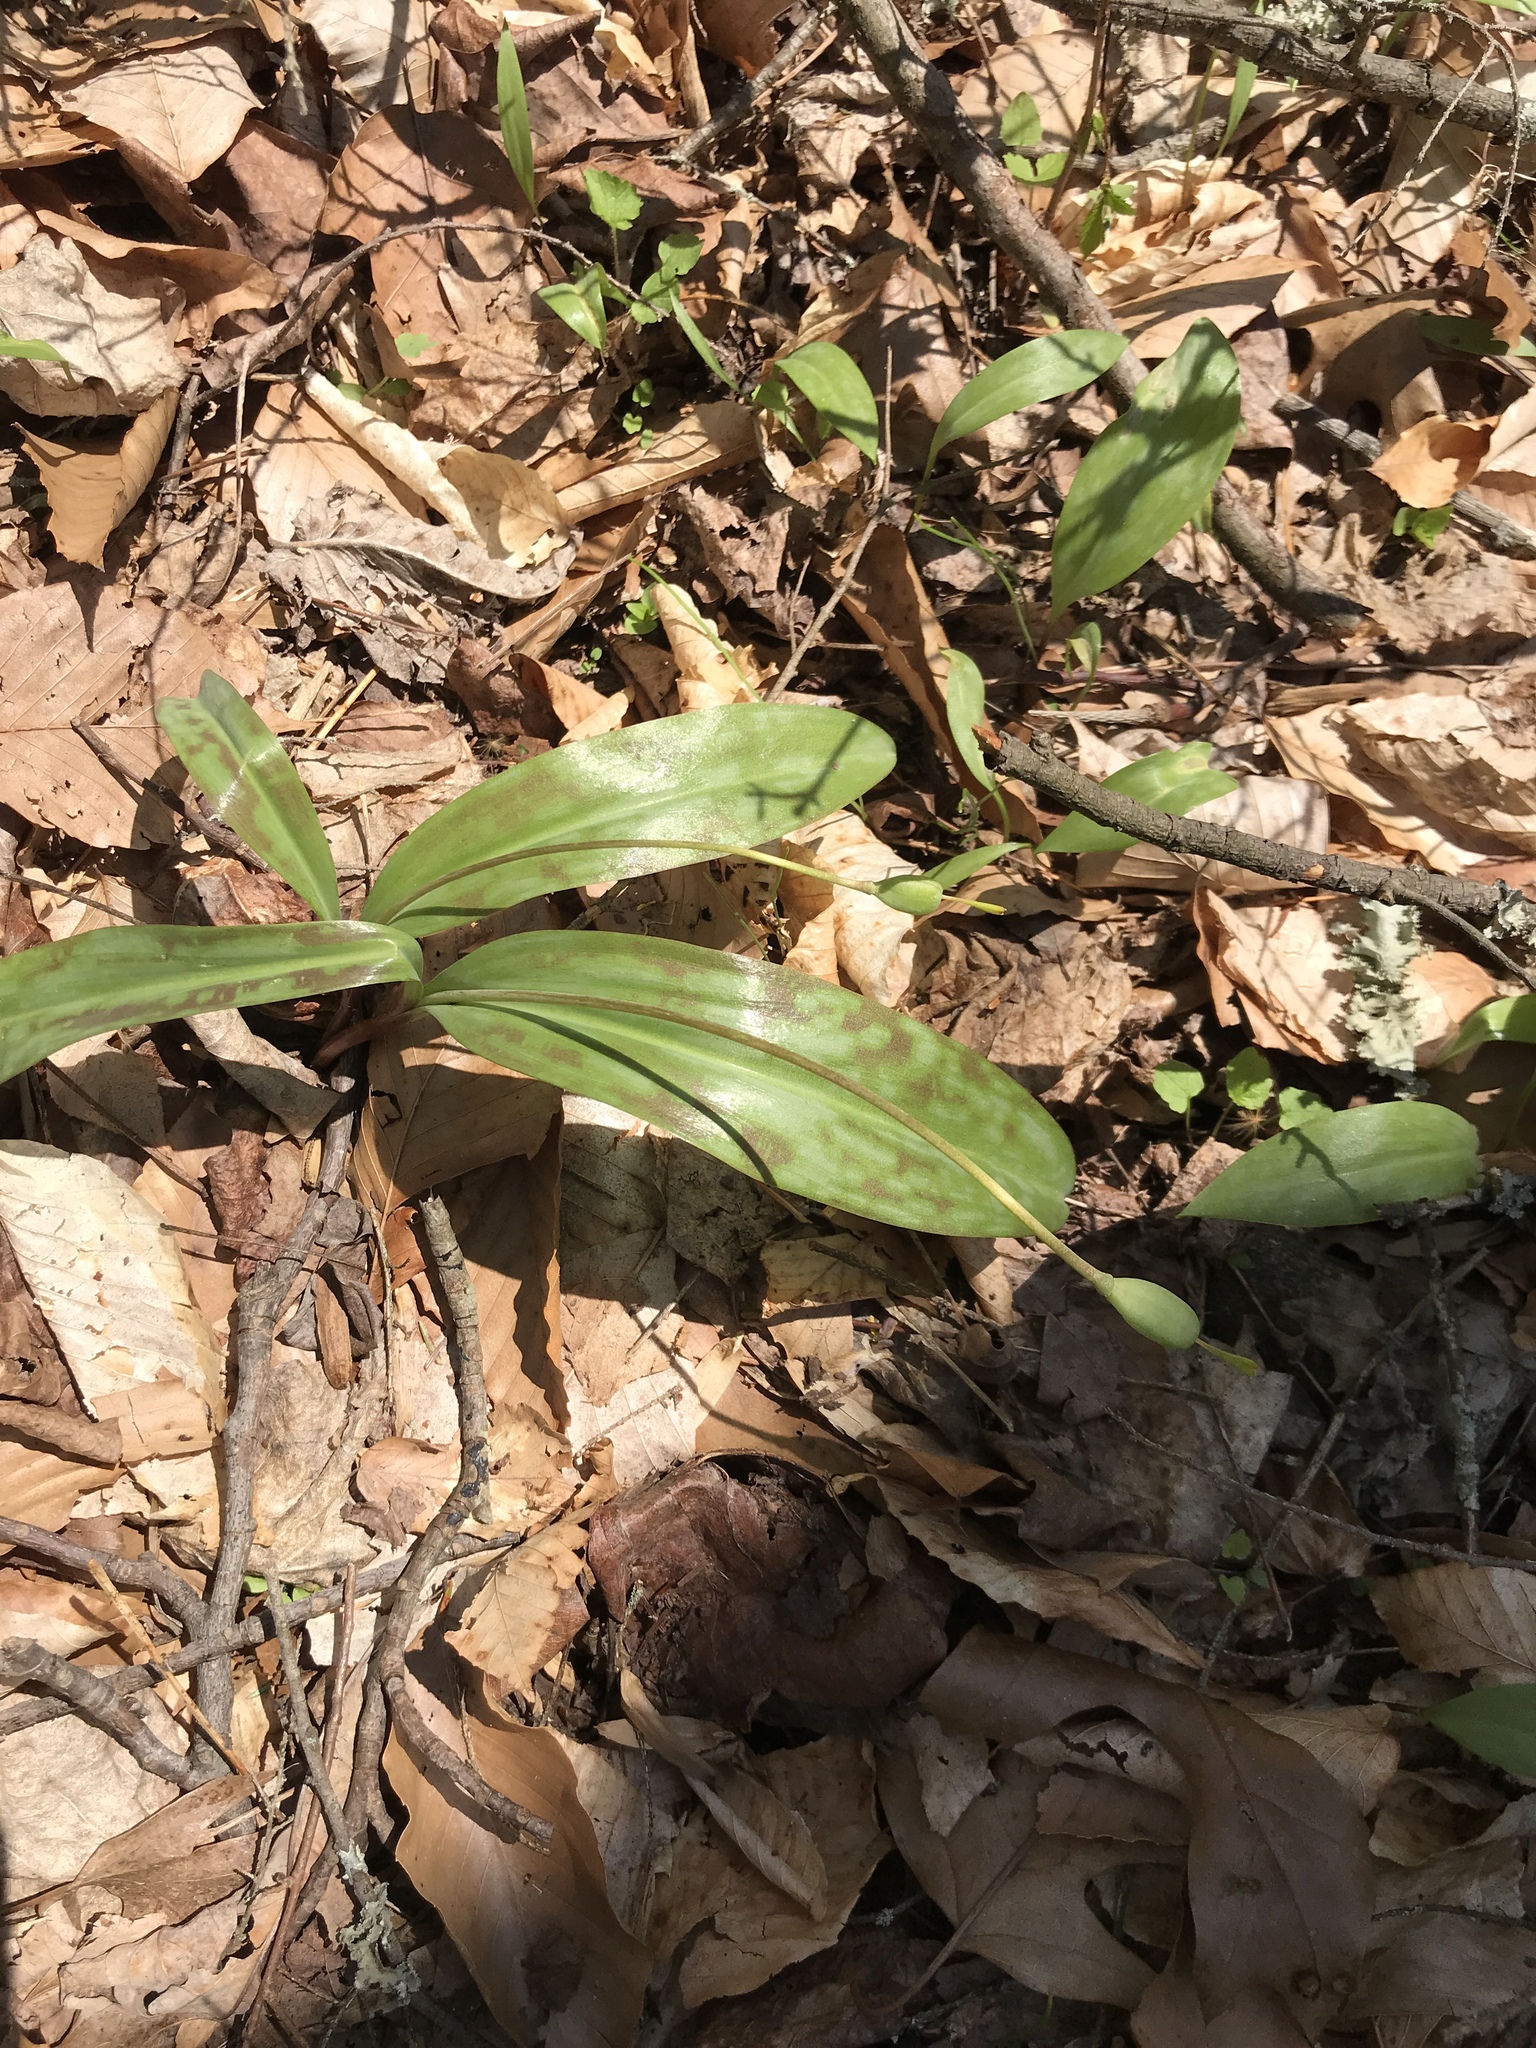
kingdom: Plantae
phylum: Tracheophyta
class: Liliopsida
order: Liliales
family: Liliaceae
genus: Erythronium
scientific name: Erythronium americanum
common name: Yellow adder's-tongue
